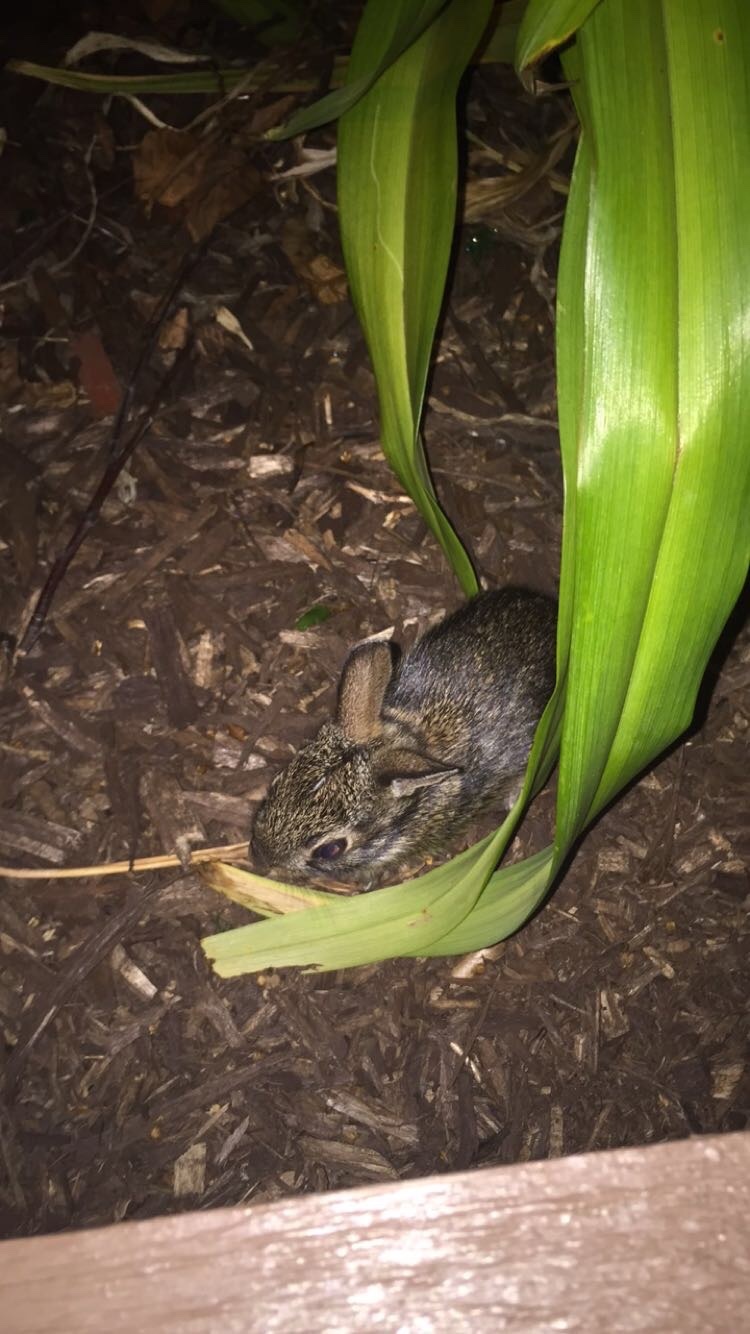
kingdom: Animalia
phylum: Chordata
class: Mammalia
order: Lagomorpha
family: Leporidae
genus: Sylvilagus
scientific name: Sylvilagus floridanus
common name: Eastern cottontail
